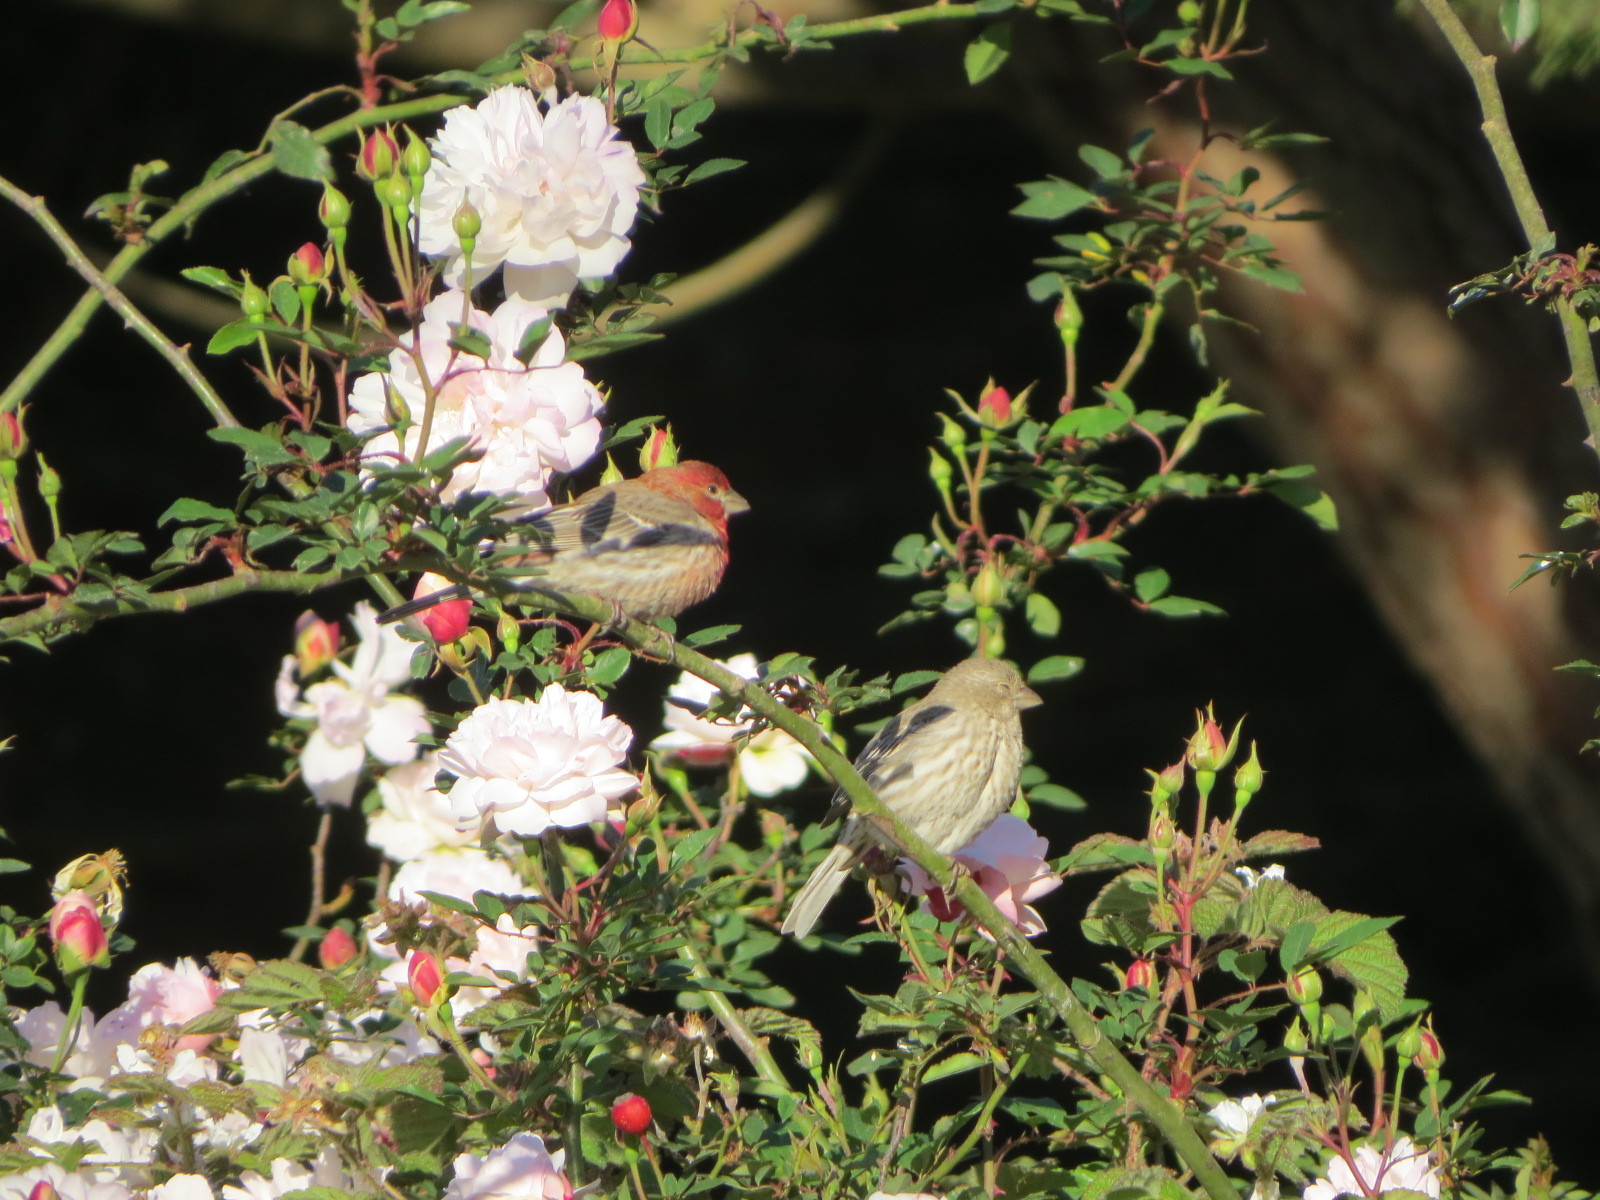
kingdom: Animalia
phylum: Chordata
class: Aves
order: Passeriformes
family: Fringillidae
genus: Haemorhous
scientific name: Haemorhous mexicanus
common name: House finch
